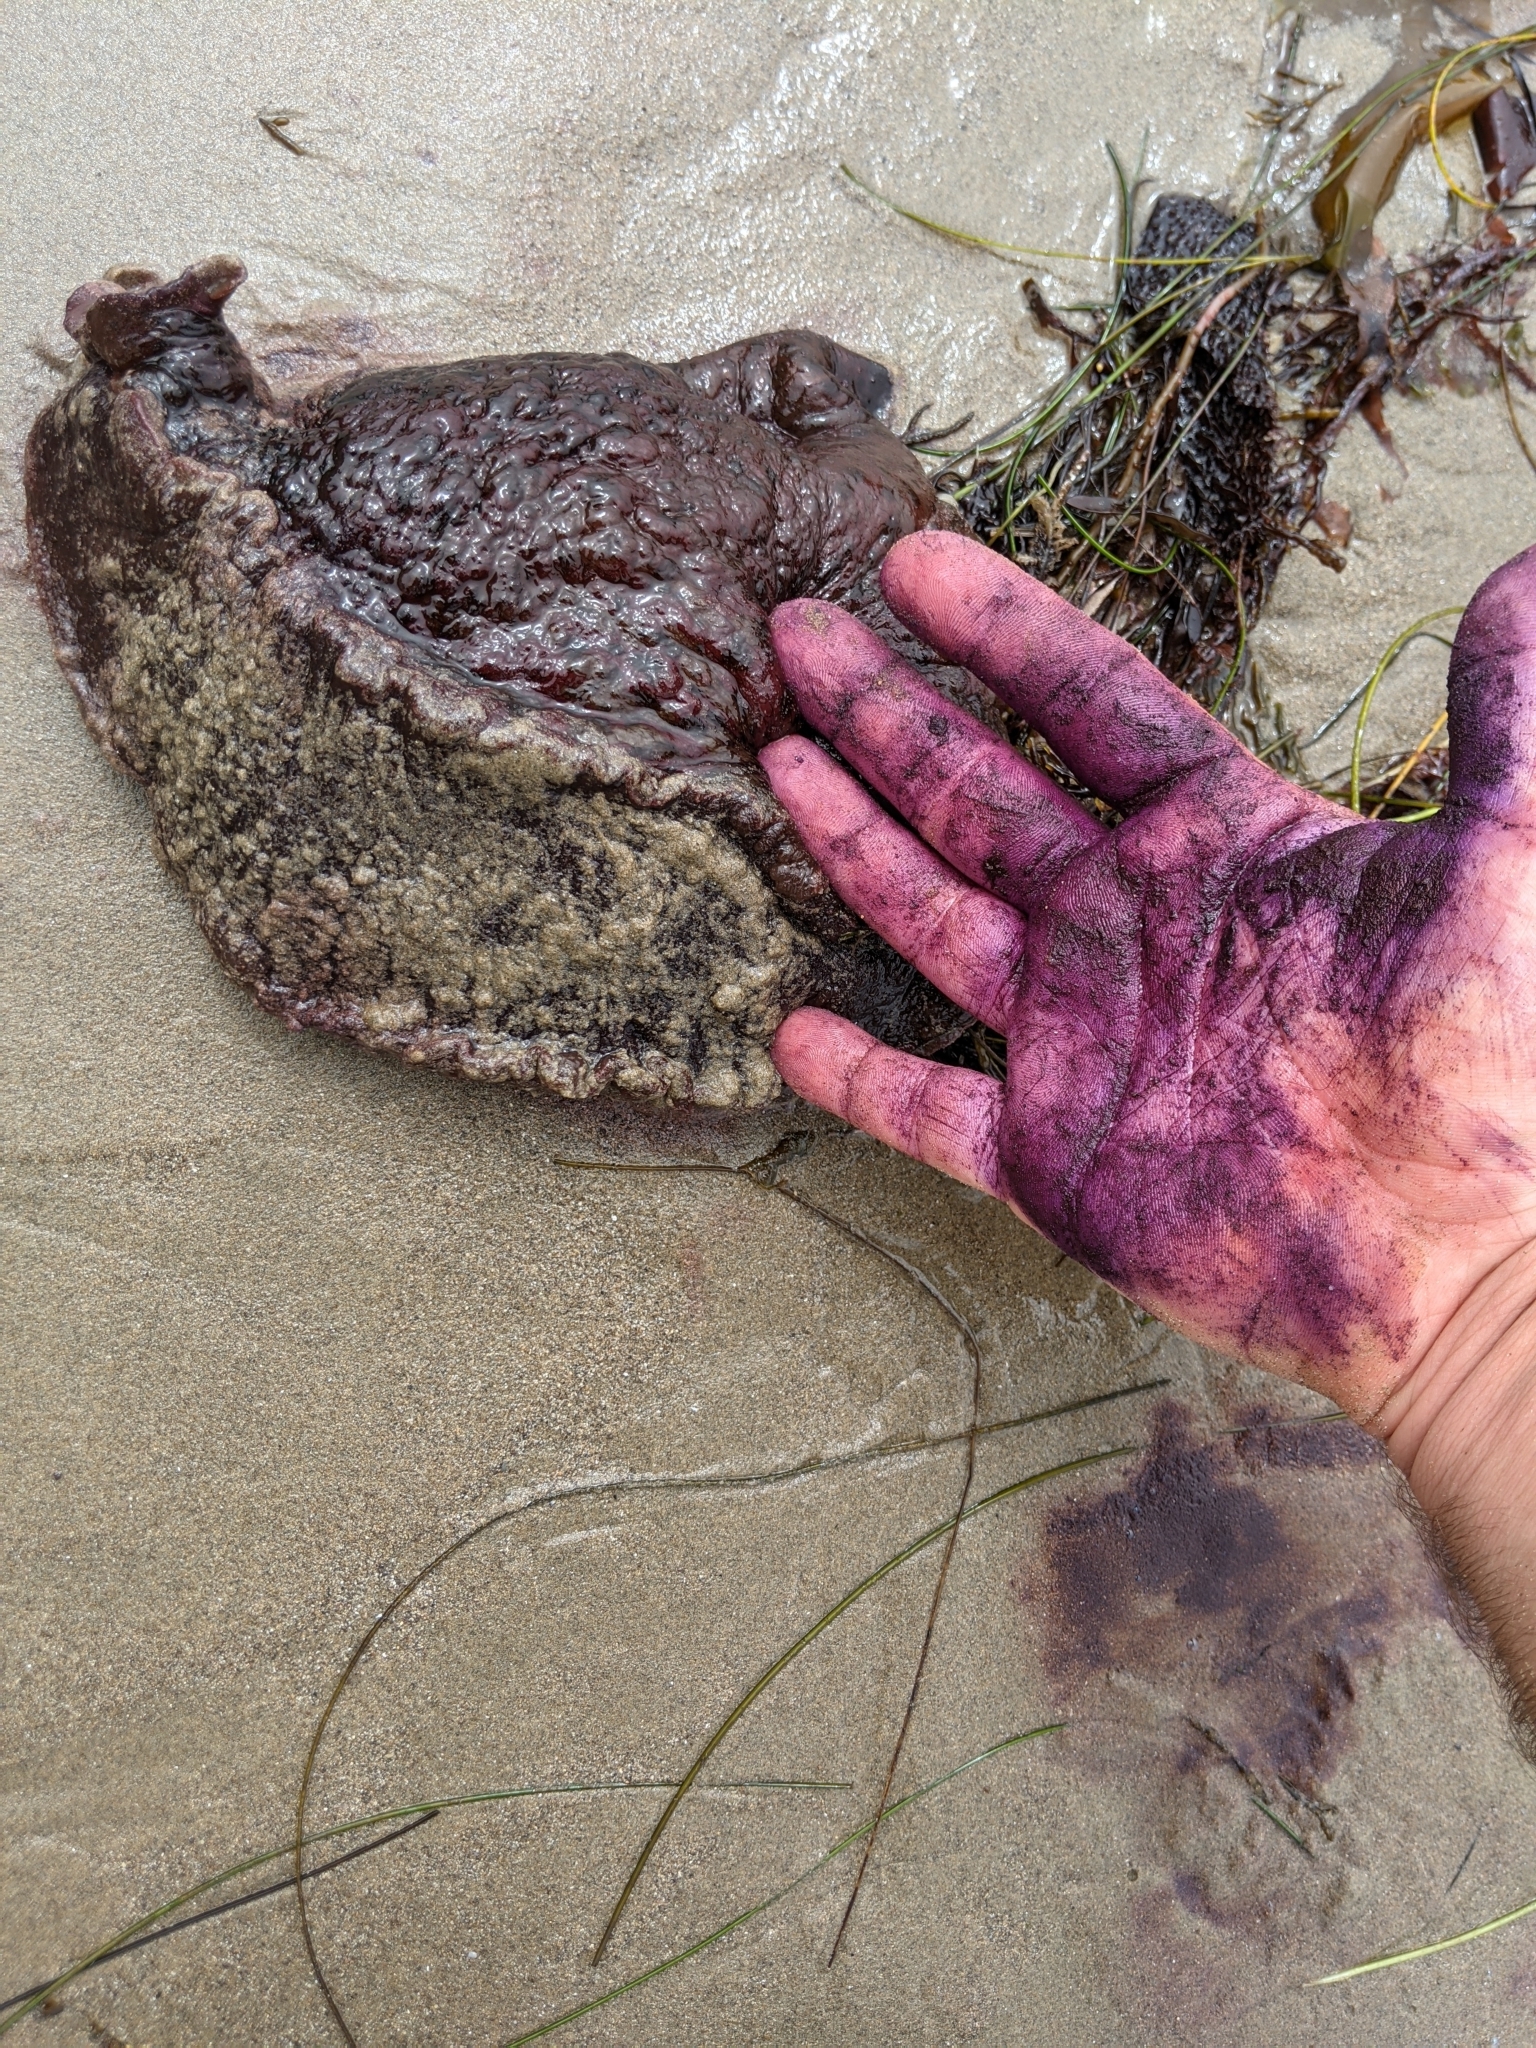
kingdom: Animalia
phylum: Mollusca
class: Gastropoda
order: Aplysiida
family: Aplysiidae
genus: Aplysia
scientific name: Aplysia californica
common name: California seahare
